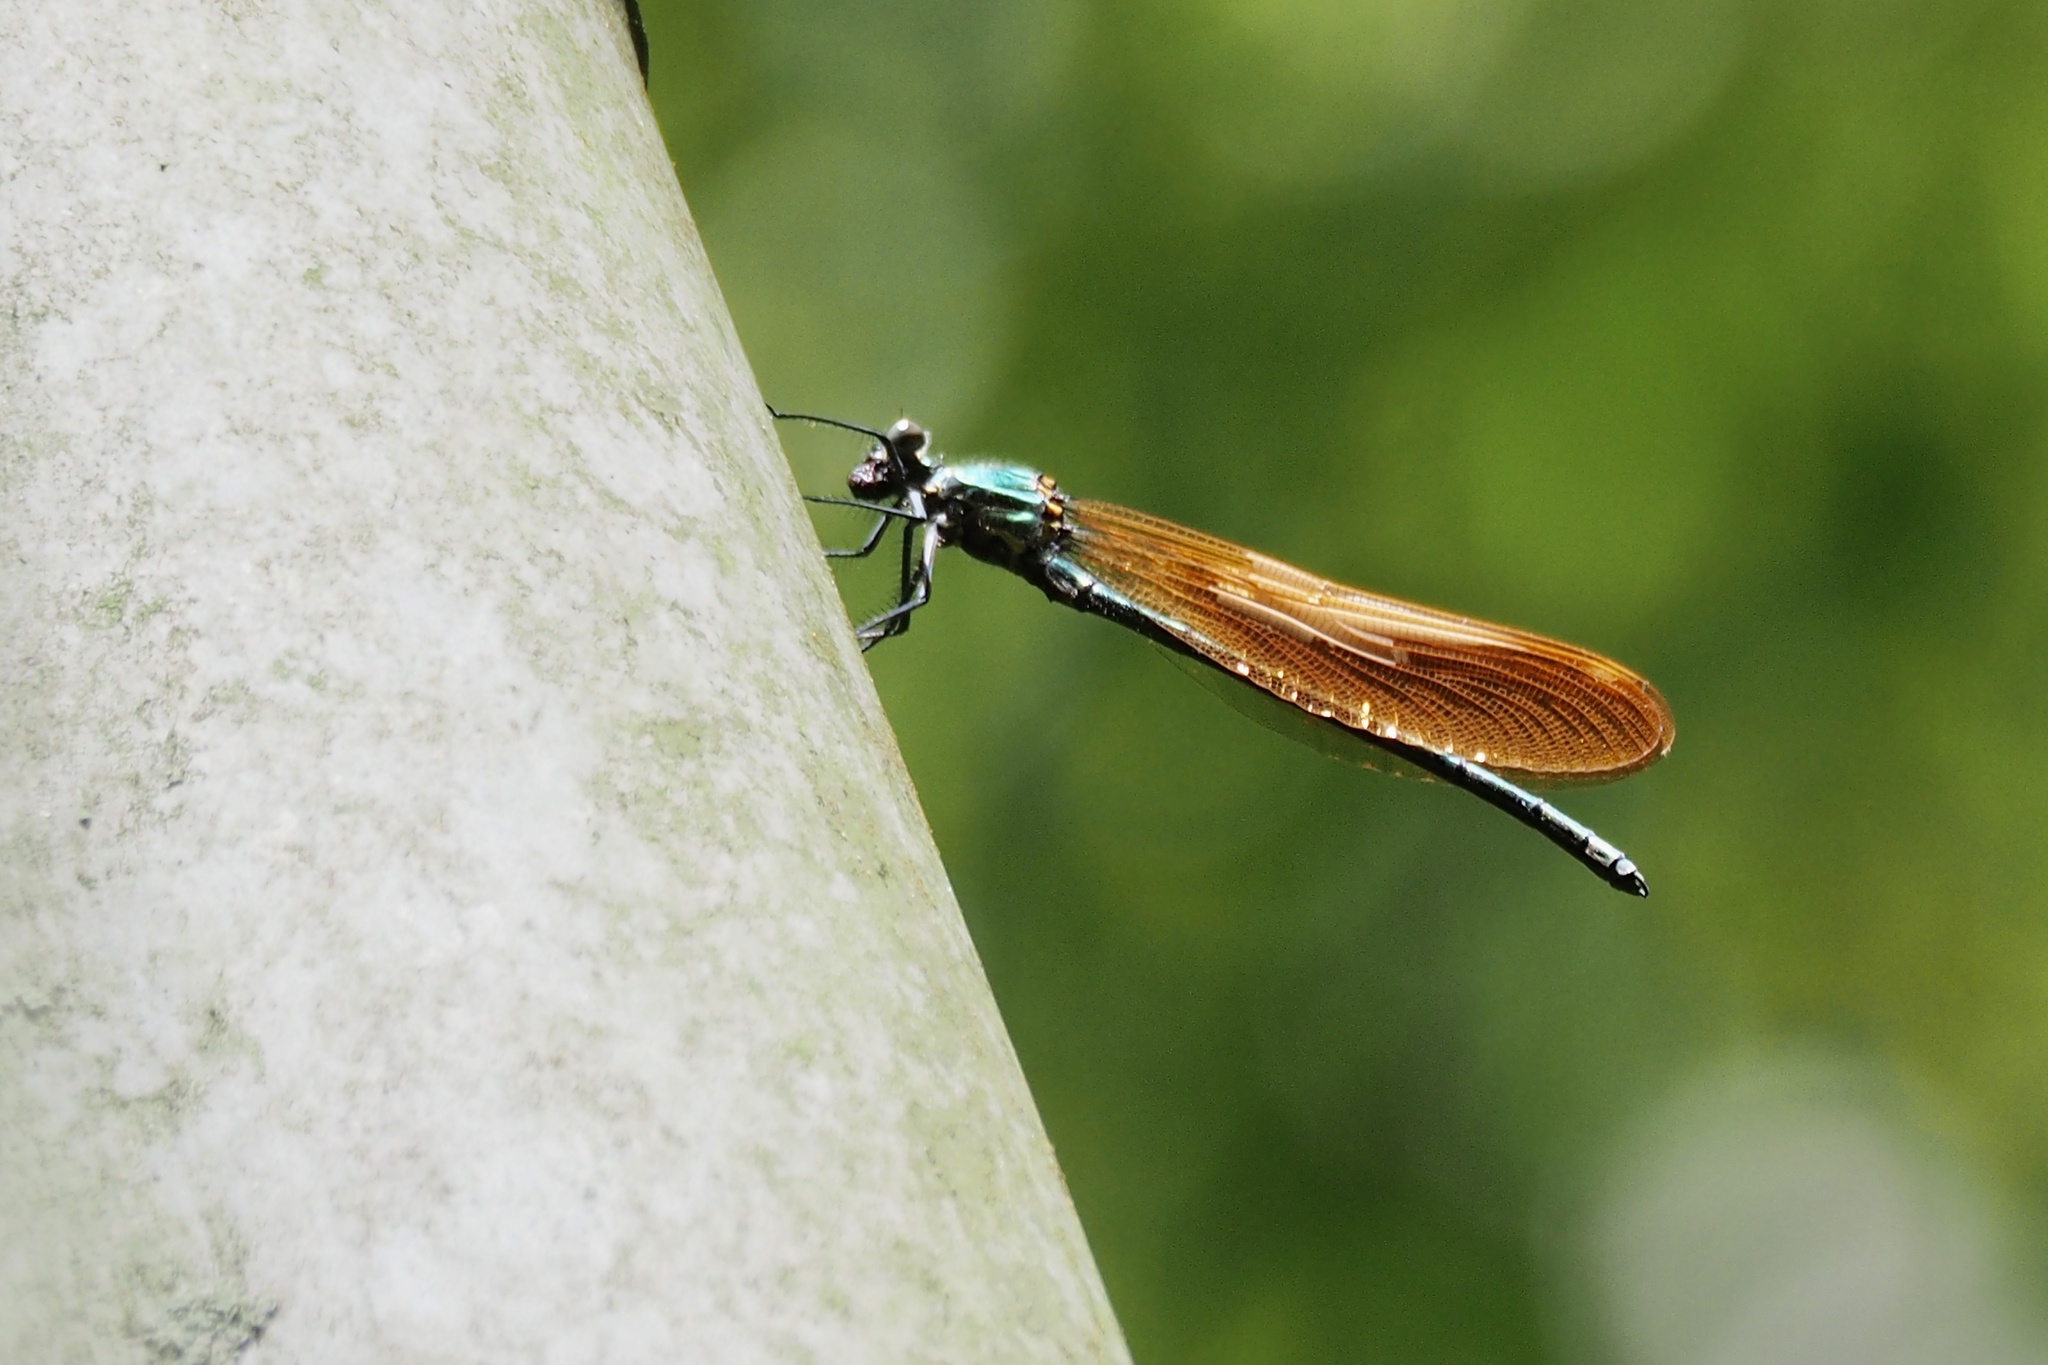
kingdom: Animalia
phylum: Arthropoda
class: Insecta
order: Odonata
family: Calopterygidae
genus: Mnais
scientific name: Mnais pruinosa
